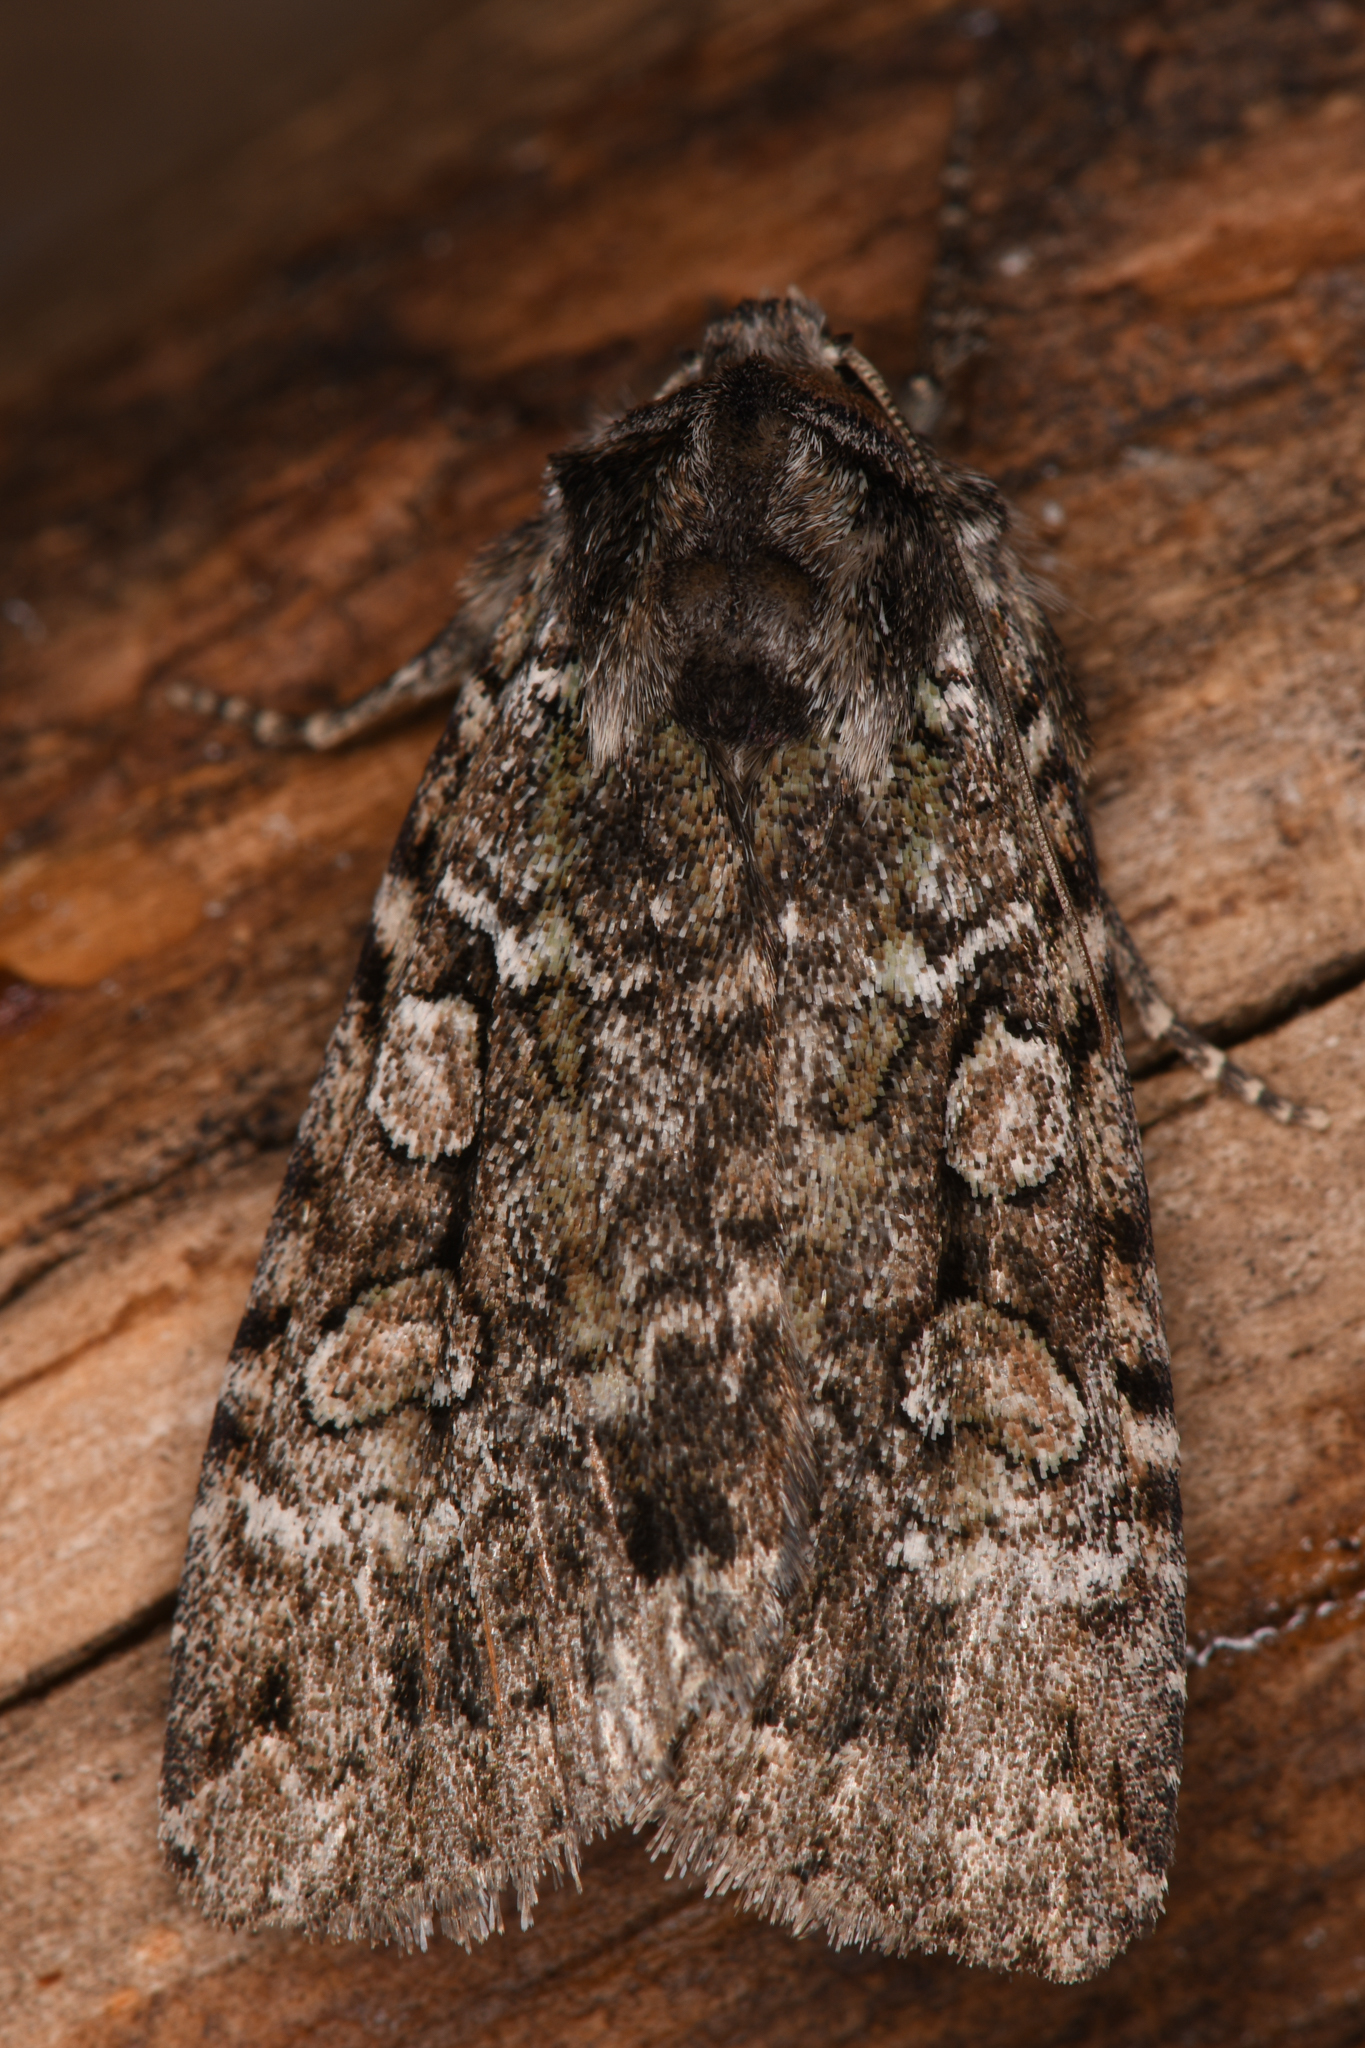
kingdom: Animalia
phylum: Arthropoda
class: Insecta
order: Lepidoptera
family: Noctuidae
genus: Anaplectoides
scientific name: Anaplectoides pressus
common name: Dappled dart
